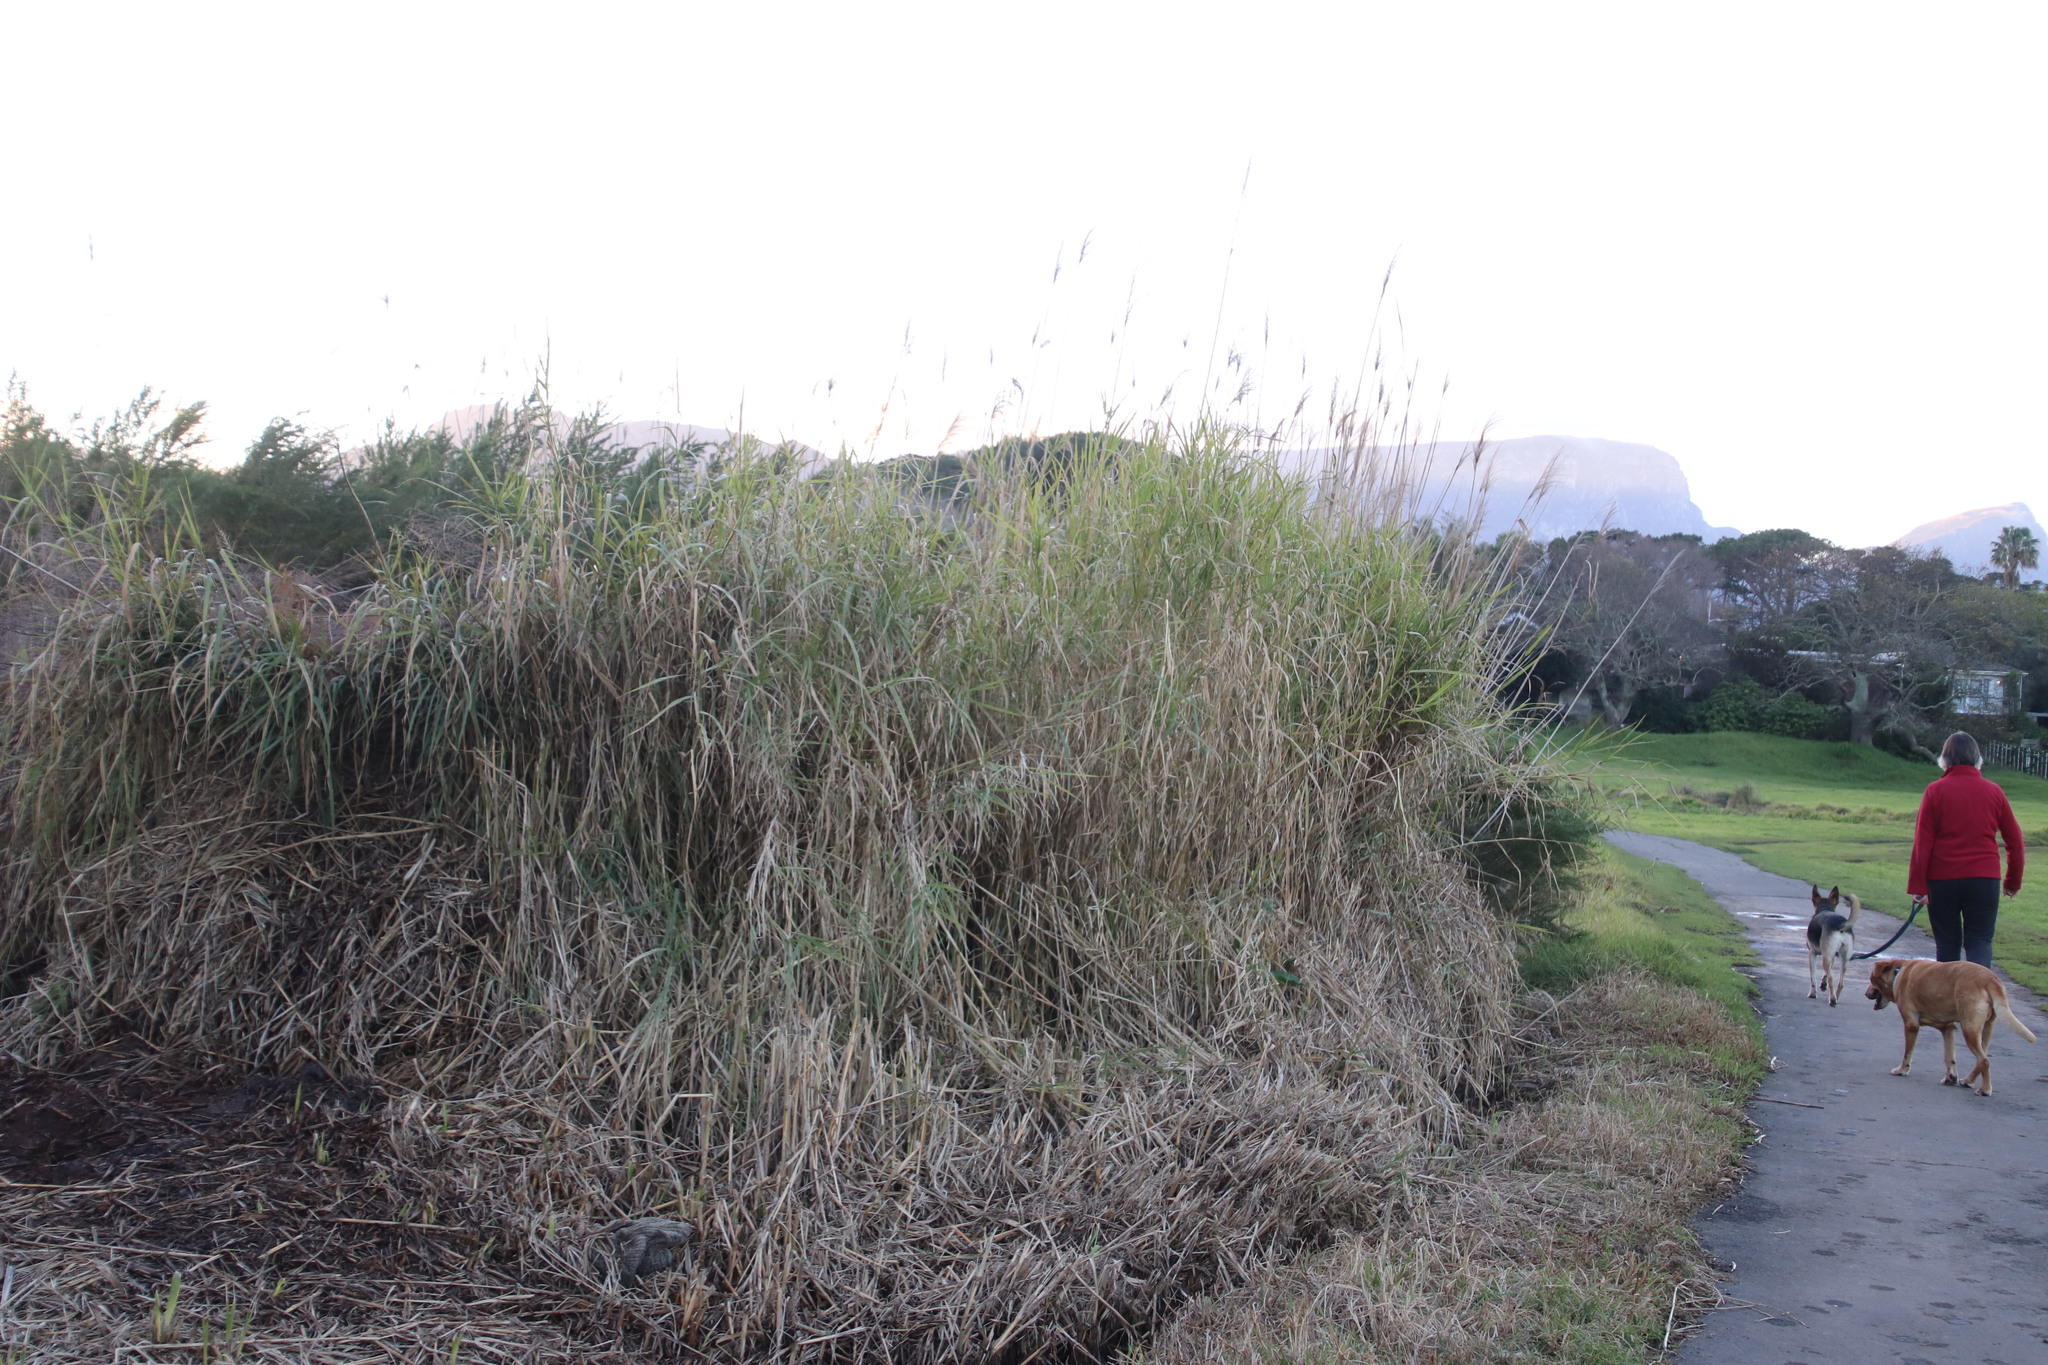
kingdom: Plantae
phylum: Tracheophyta
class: Liliopsida
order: Poales
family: Poaceae
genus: Echinochloa
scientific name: Echinochloa pyramidalis
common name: Antelope grass
